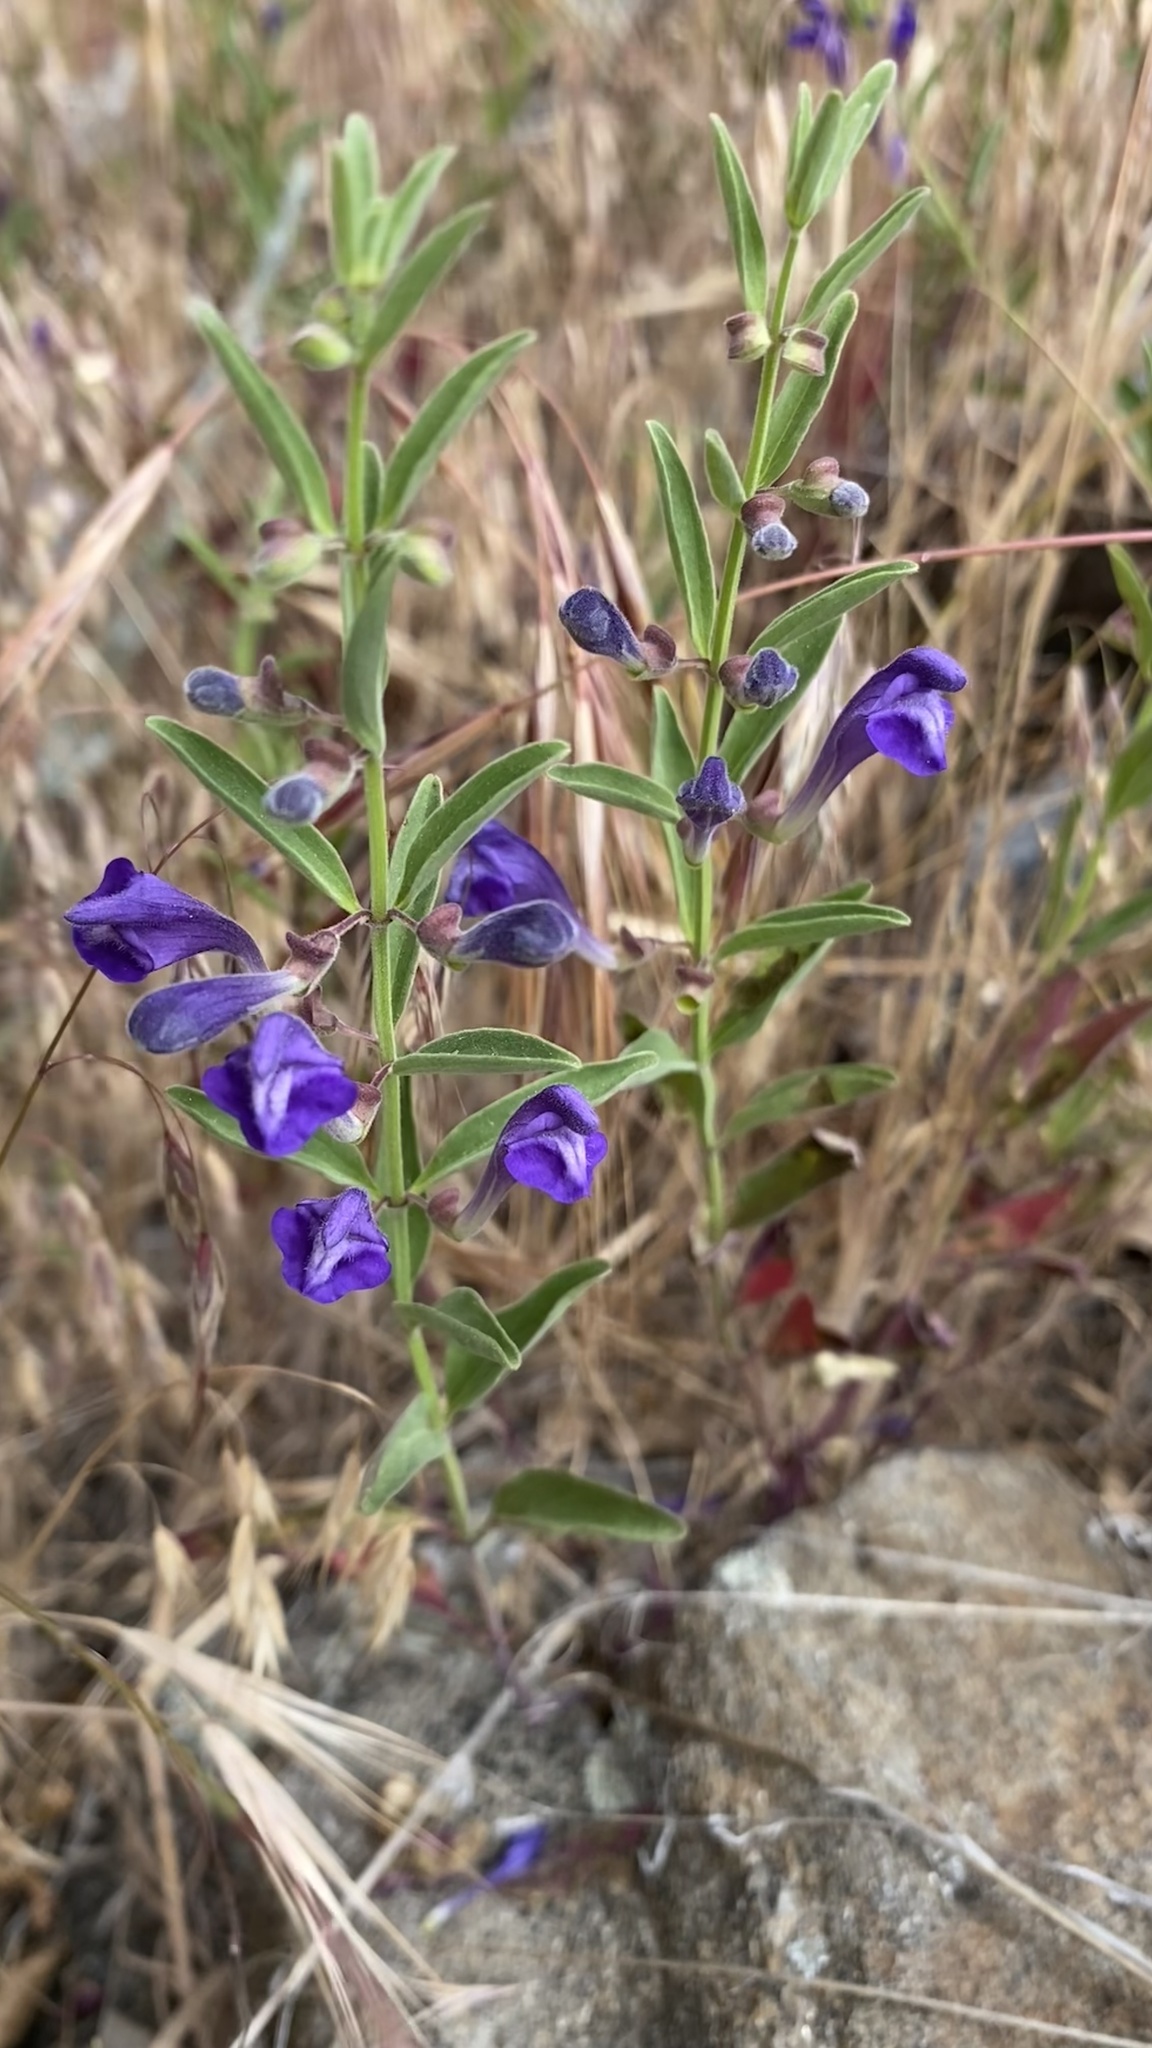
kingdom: Plantae
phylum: Tracheophyta
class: Magnoliopsida
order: Lamiales
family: Lamiaceae
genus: Scutellaria
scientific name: Scutellaria siphocampyloides
